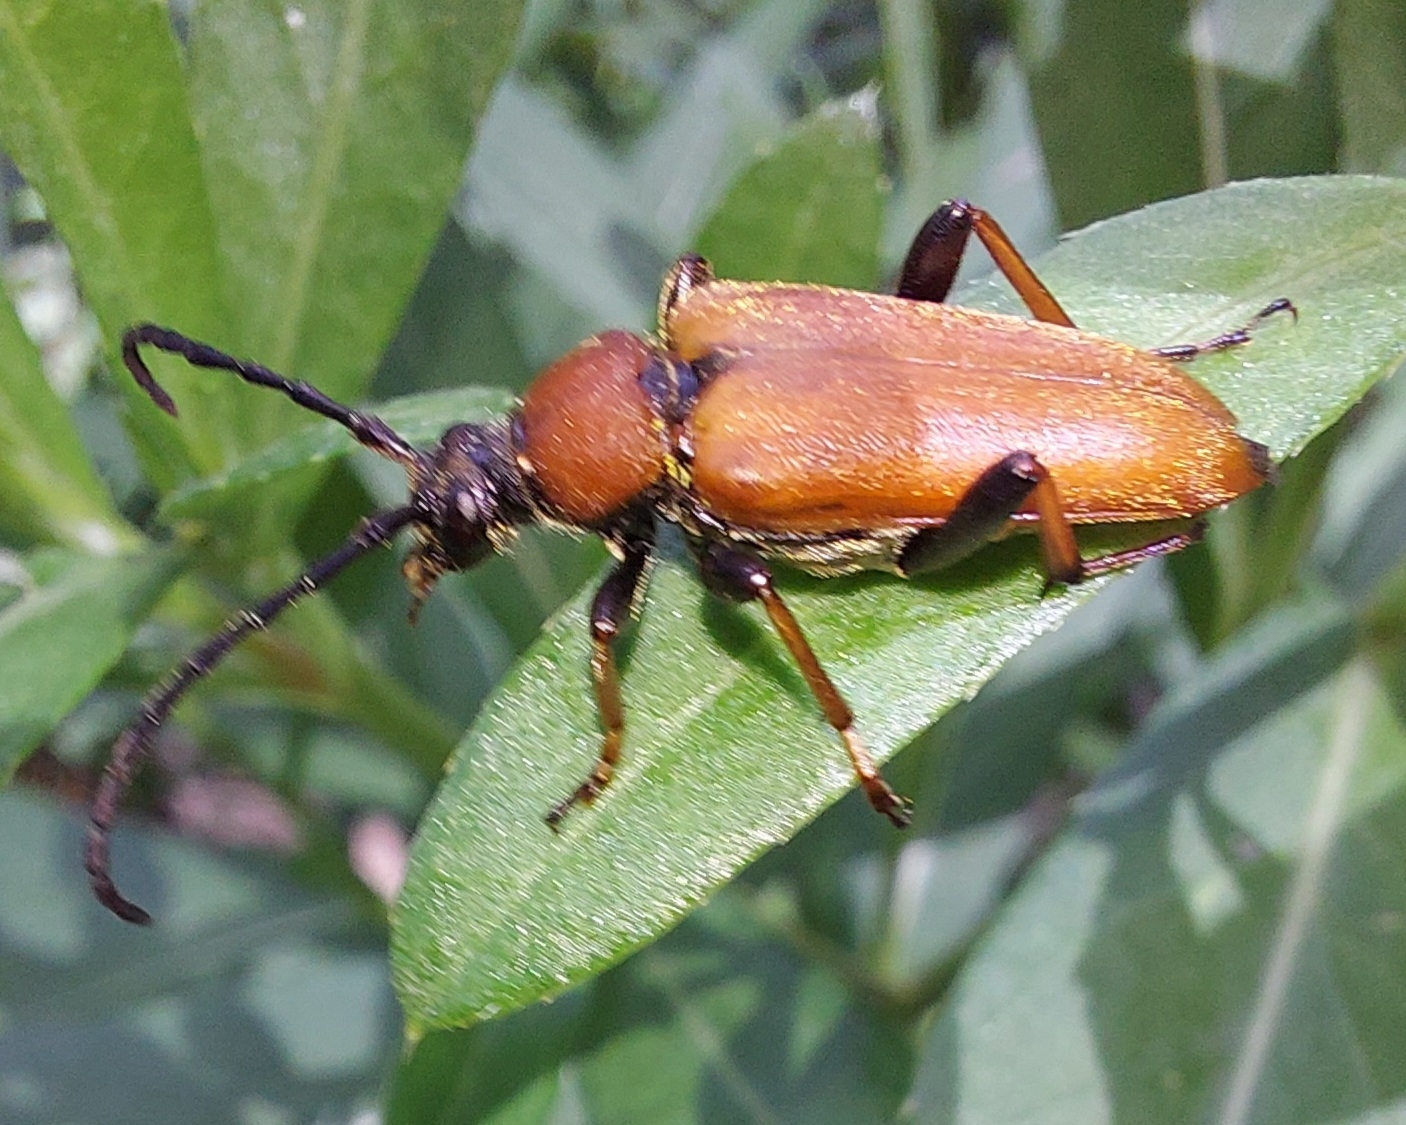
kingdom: Animalia
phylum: Arthropoda
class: Insecta
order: Coleoptera
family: Cerambycidae
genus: Stictoleptura
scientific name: Stictoleptura rubra
